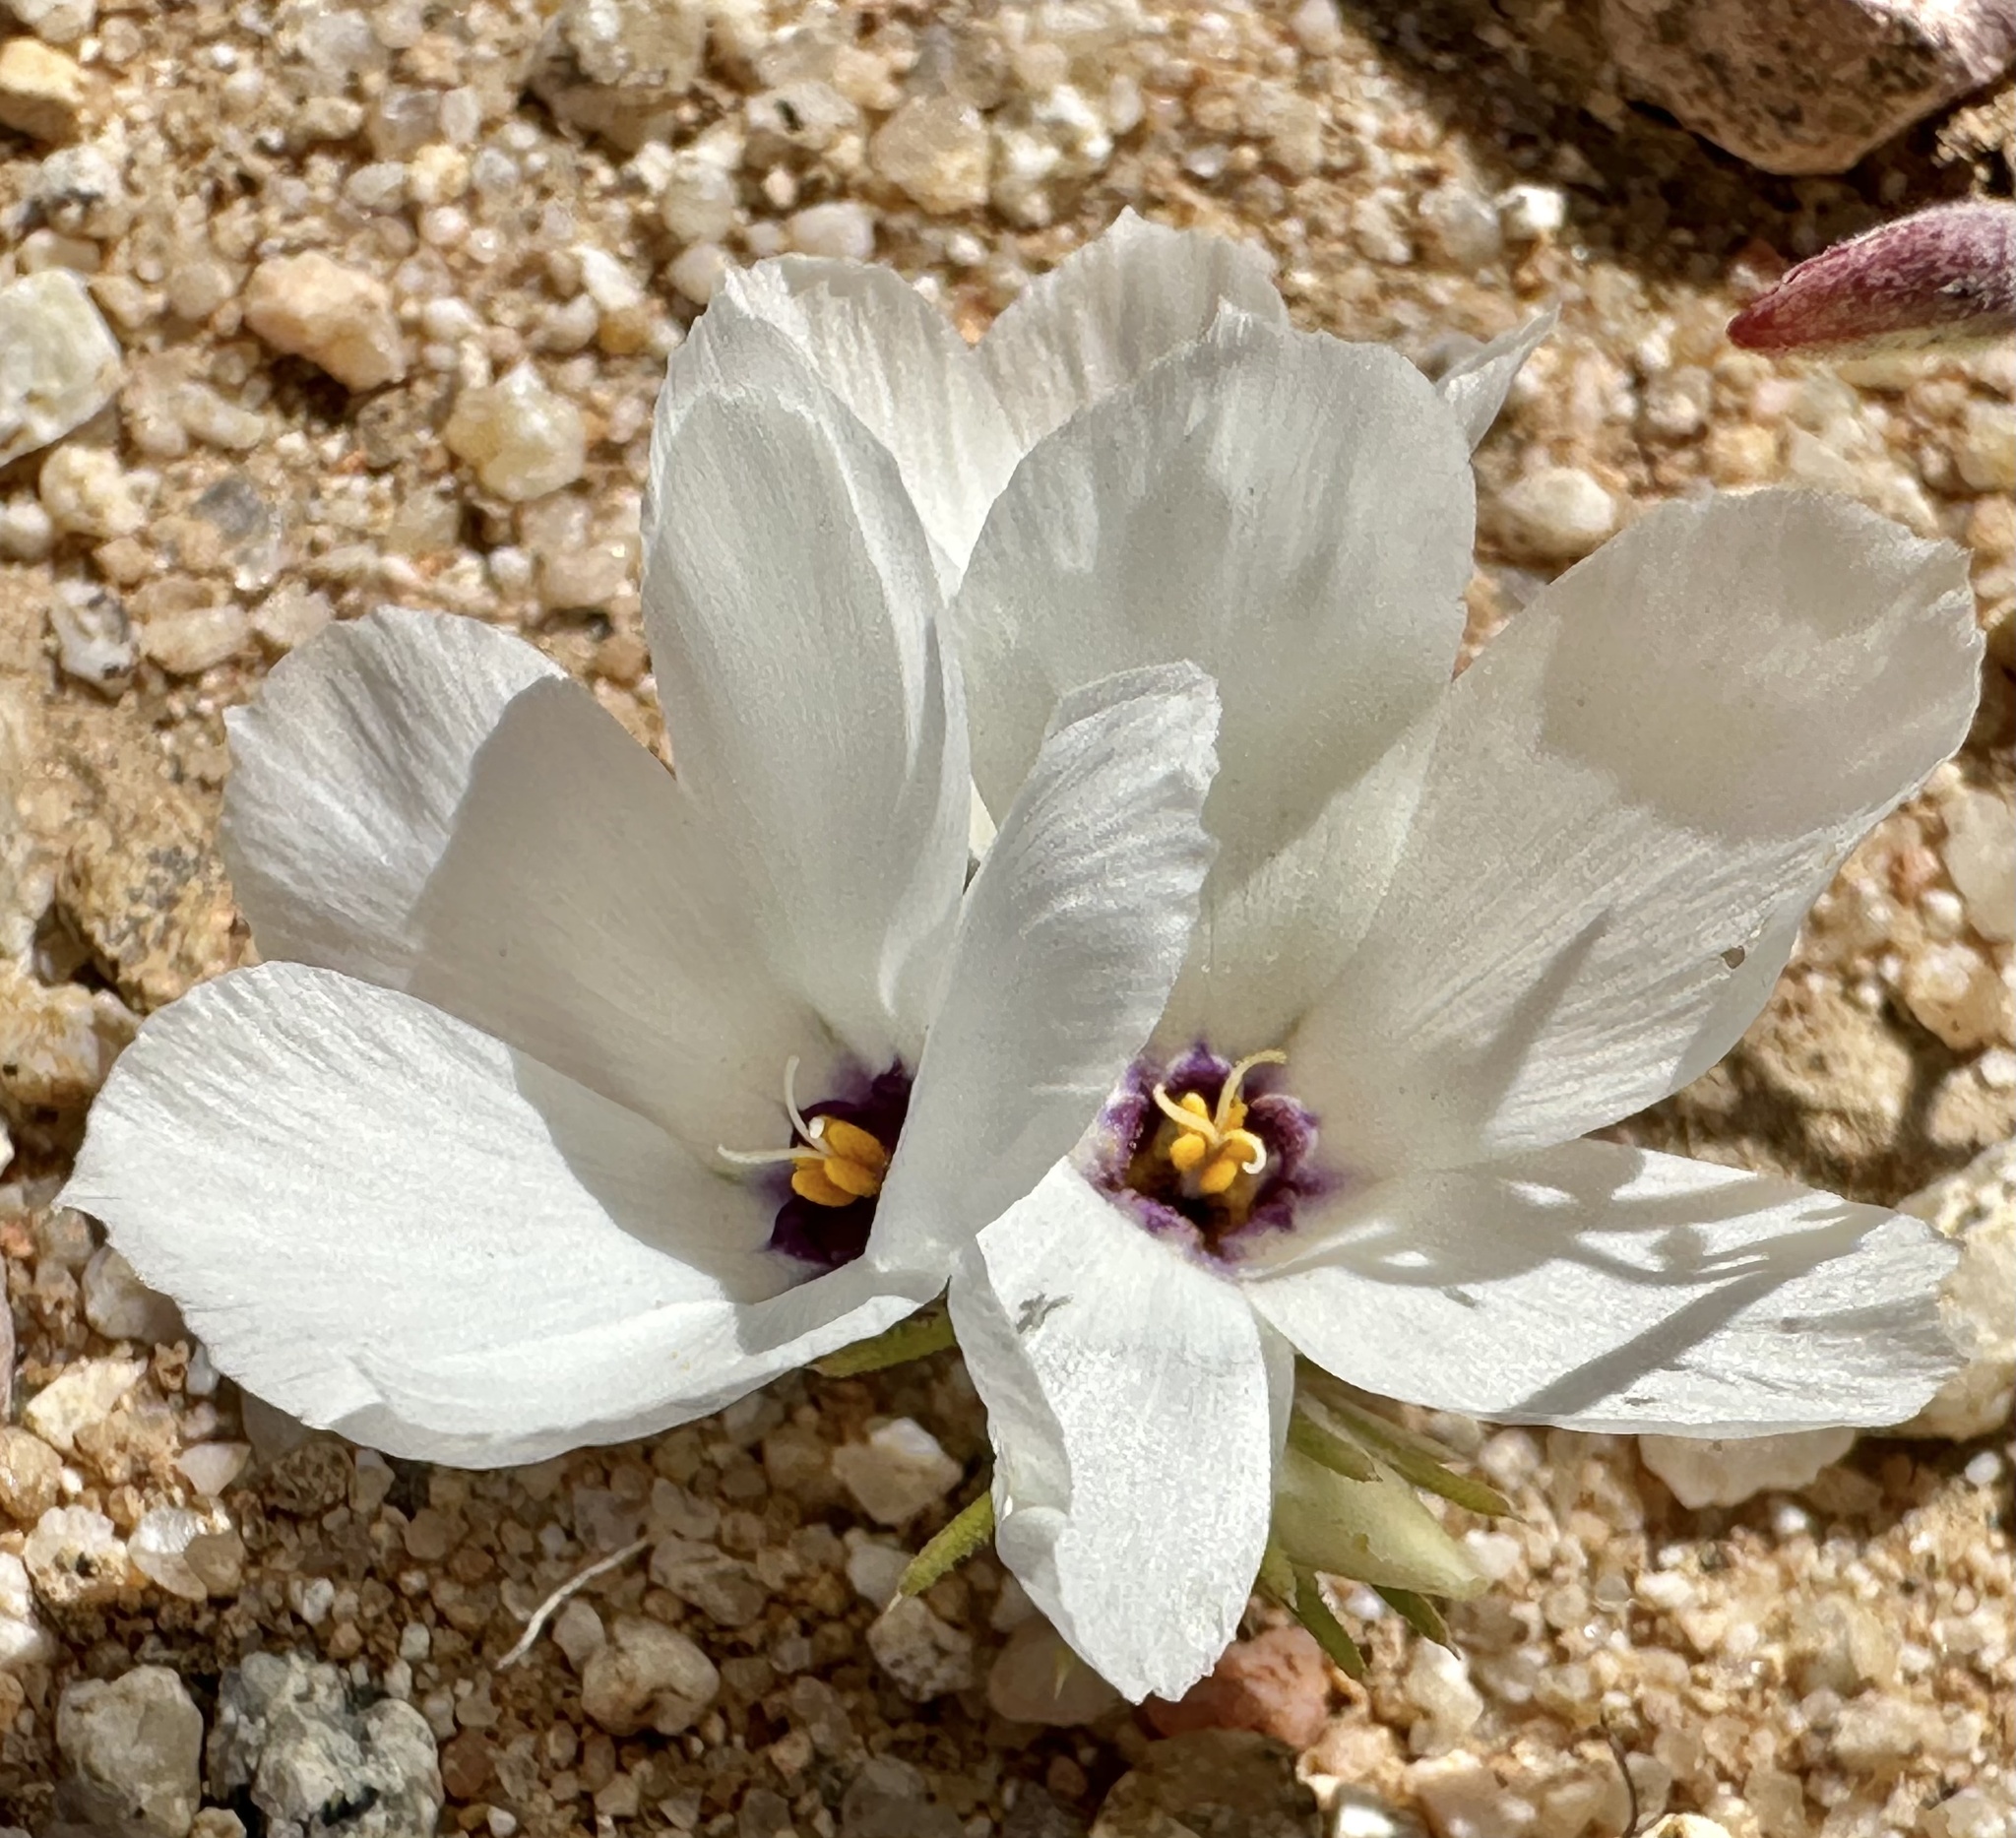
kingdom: Plantae
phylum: Tracheophyta
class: Magnoliopsida
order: Ericales
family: Polemoniaceae
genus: Linanthus
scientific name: Linanthus parryae
